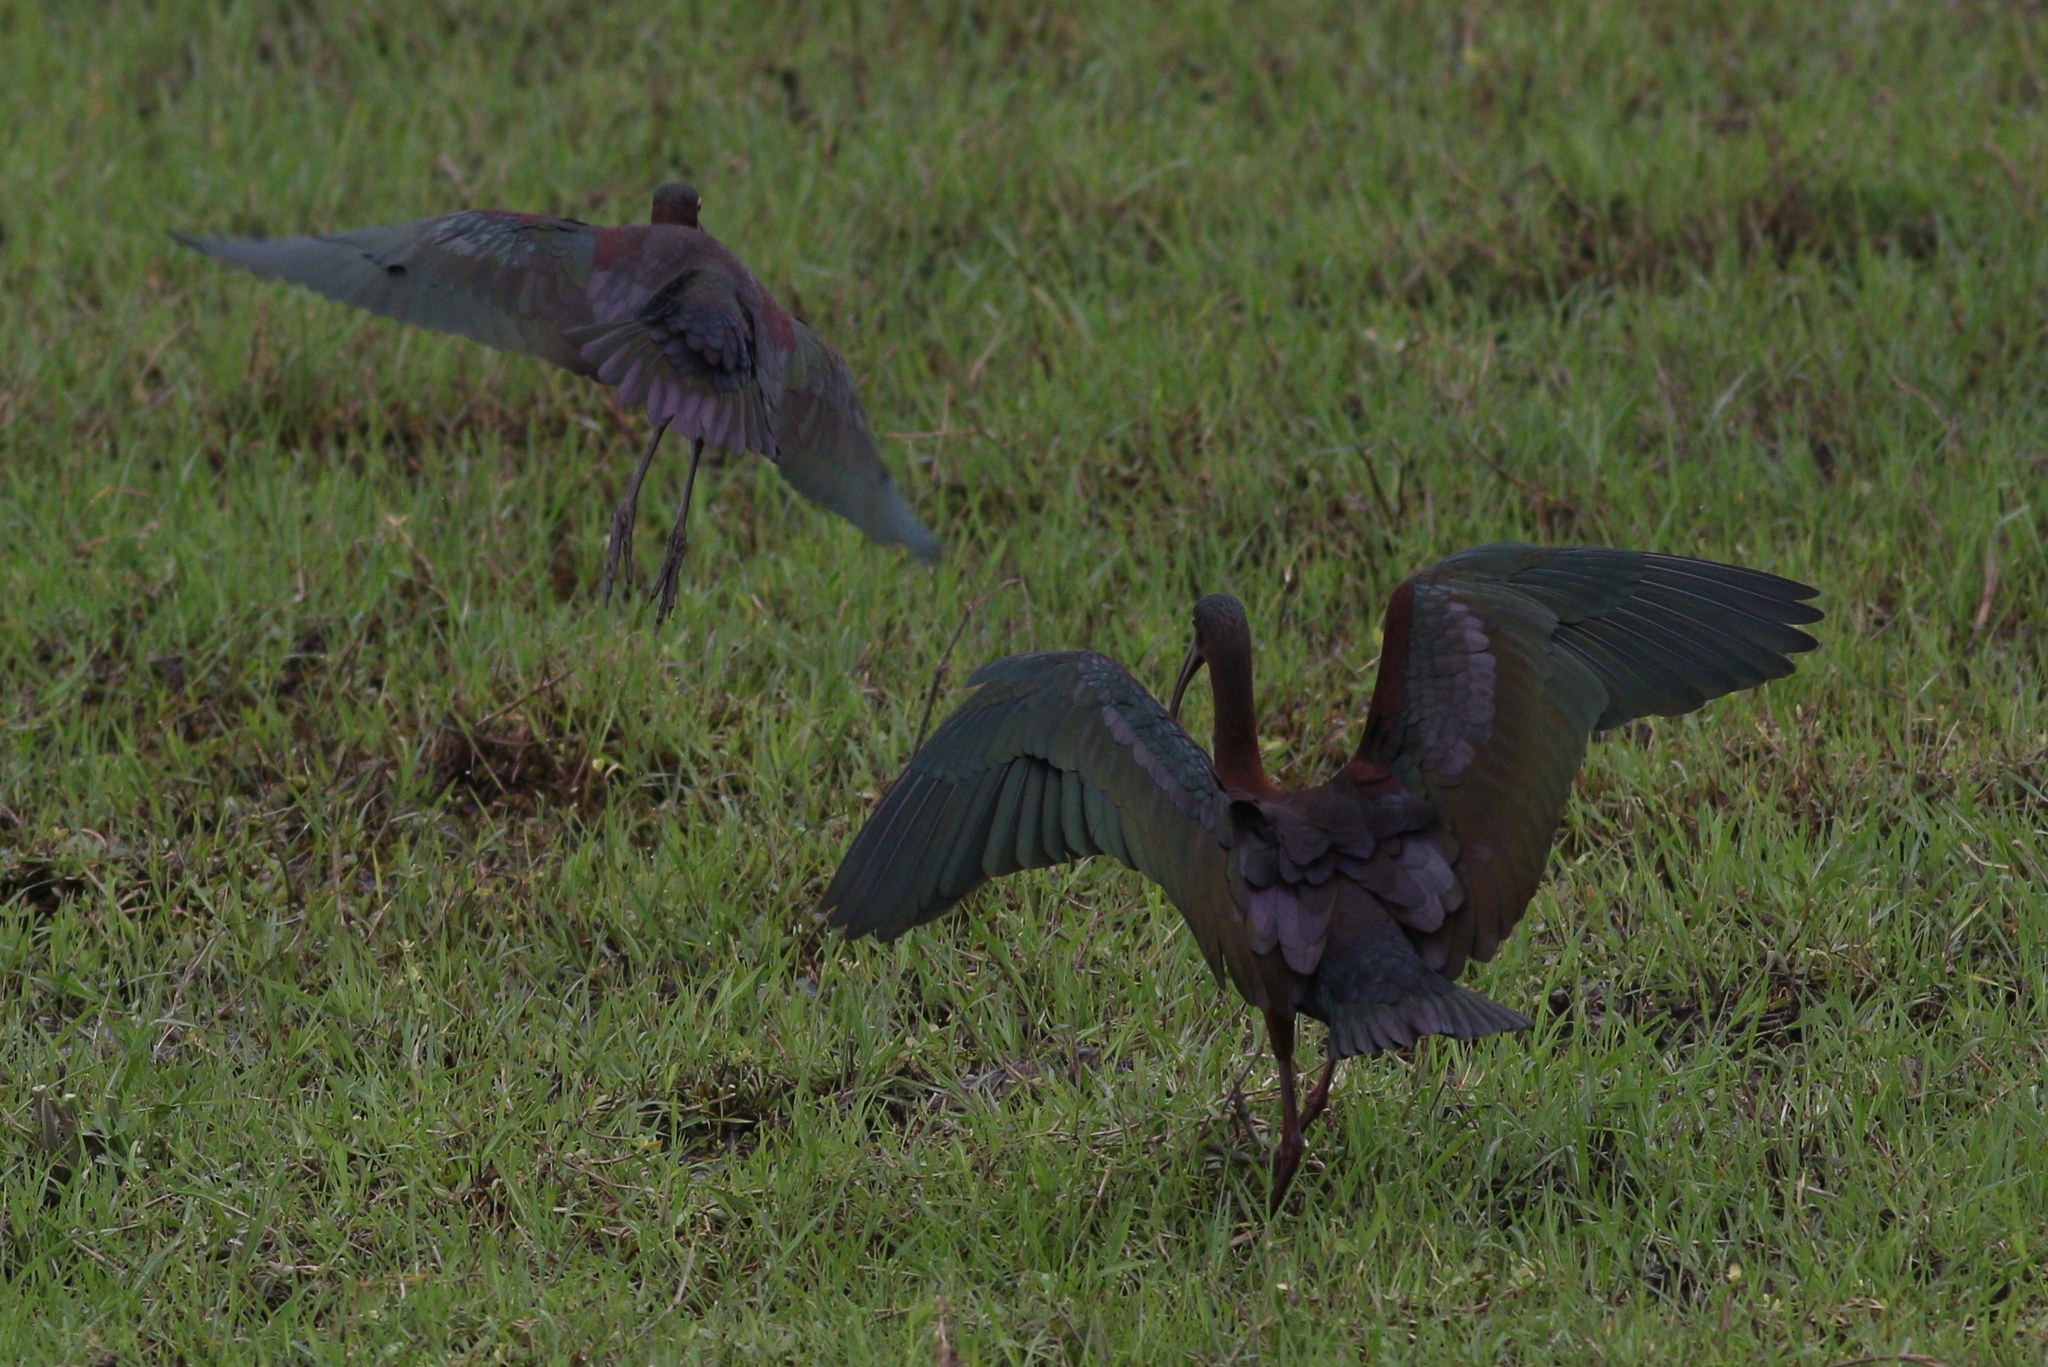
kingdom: Animalia
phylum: Chordata
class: Aves
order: Pelecaniformes
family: Threskiornithidae
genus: Plegadis
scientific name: Plegadis chihi
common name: White-faced ibis
